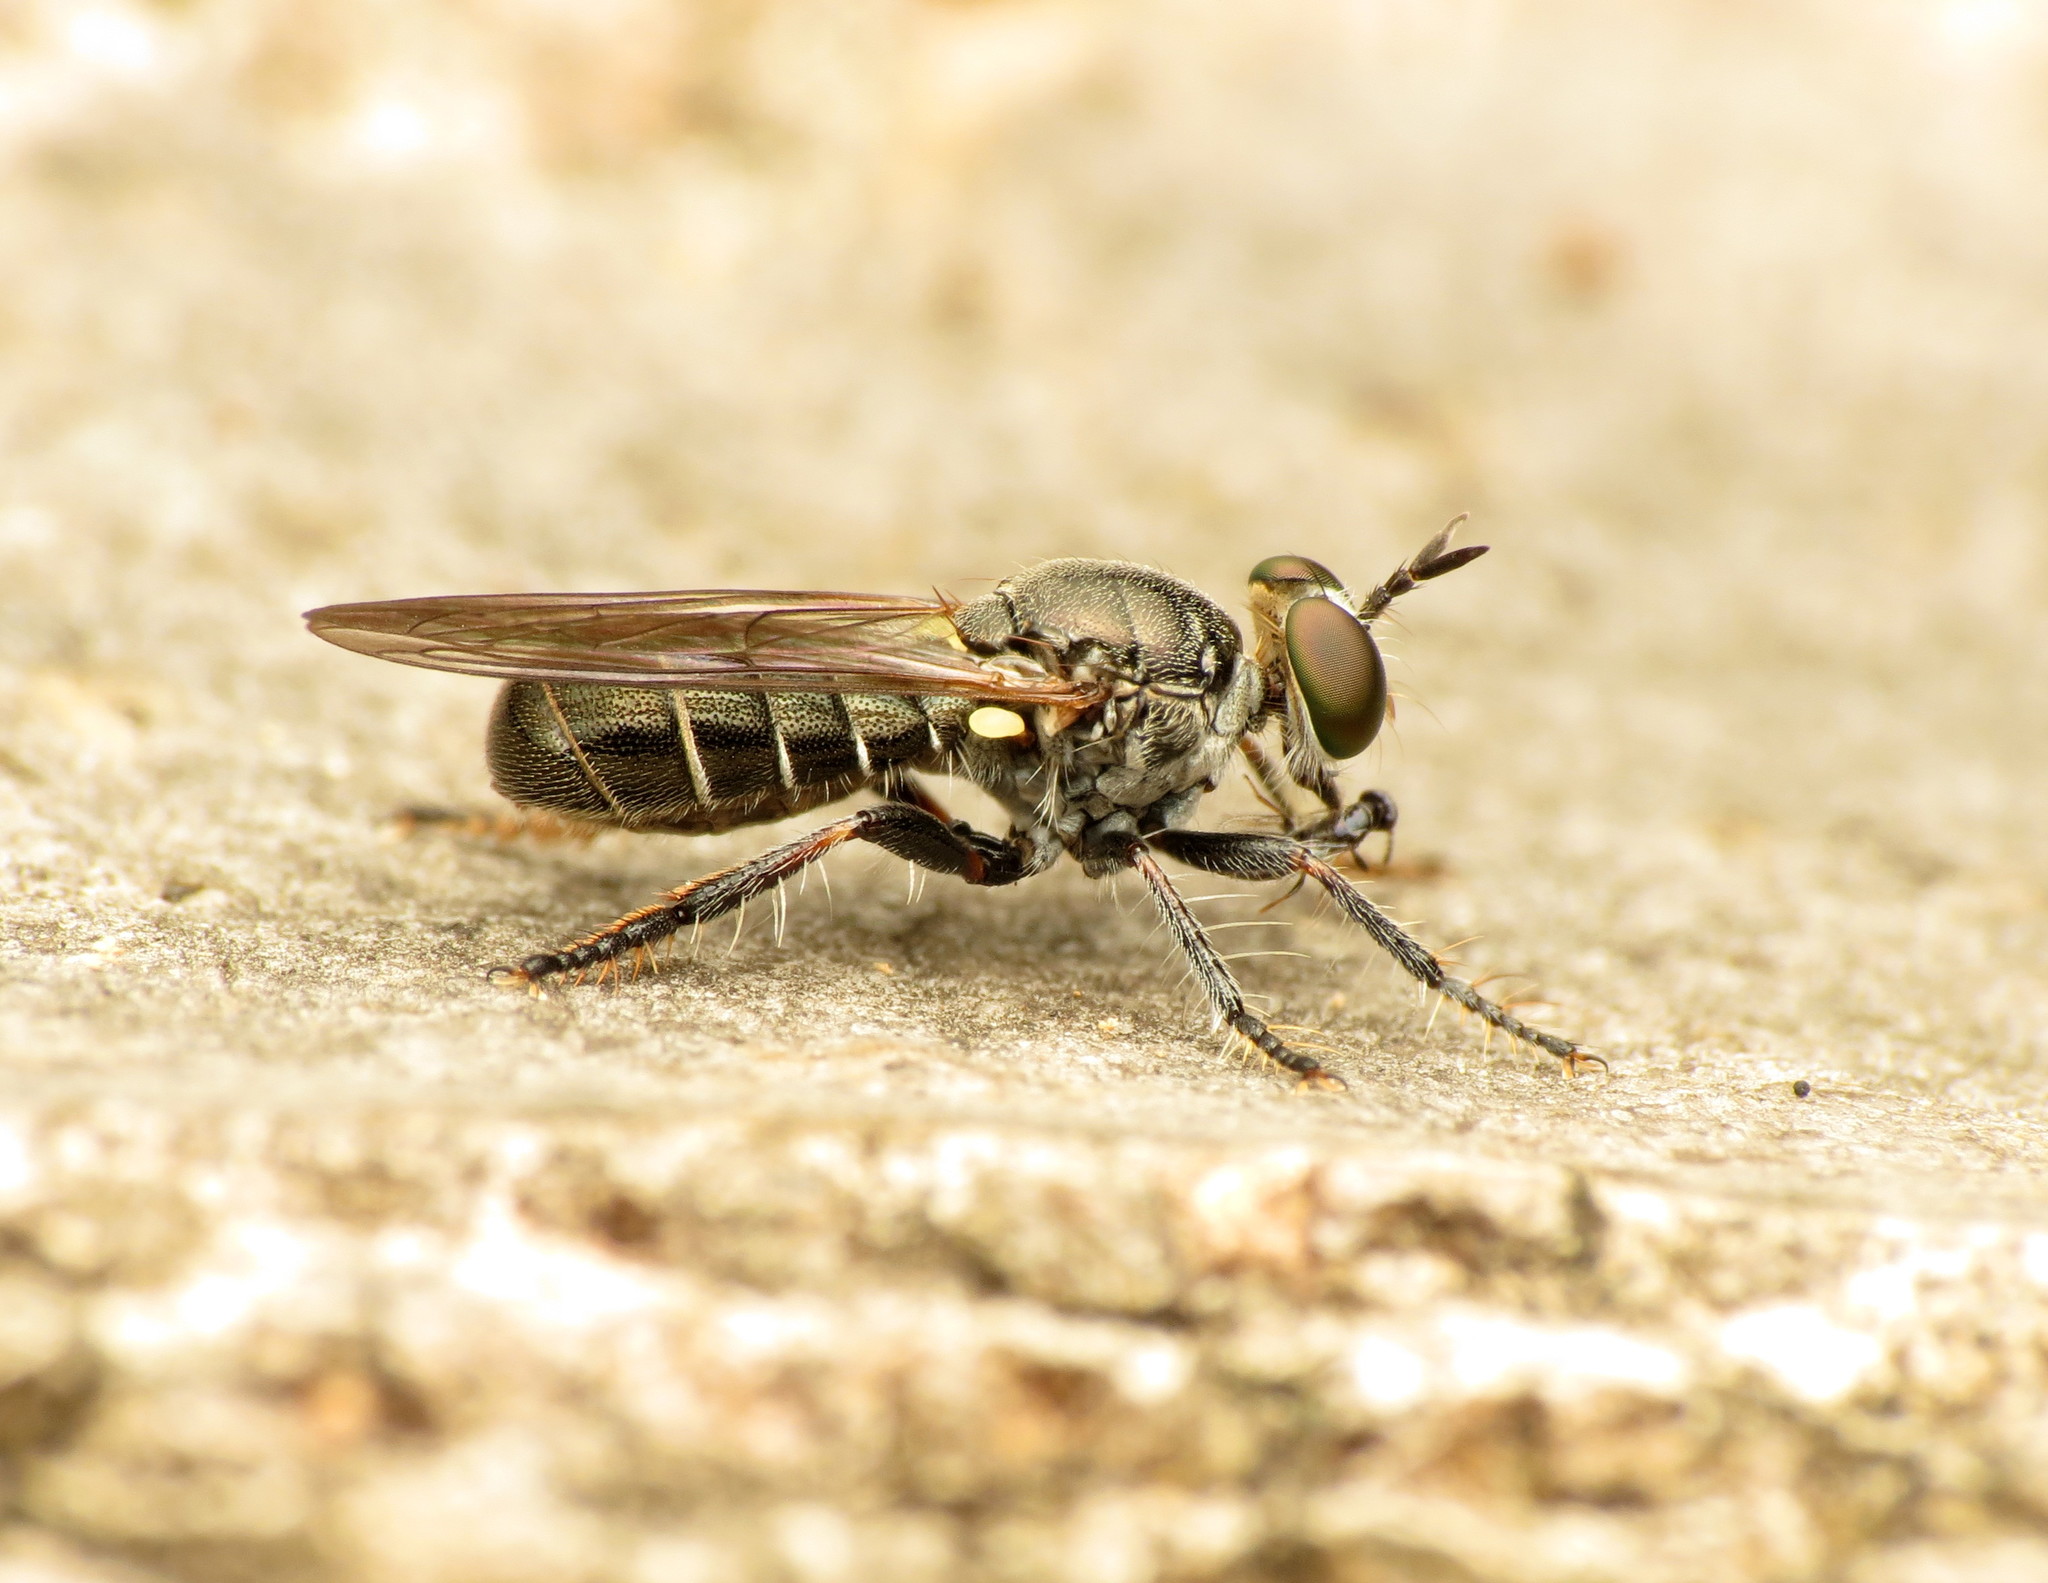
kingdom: Animalia
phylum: Arthropoda
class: Insecta
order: Diptera
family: Asilidae
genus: Atomosia
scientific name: Atomosia puella
